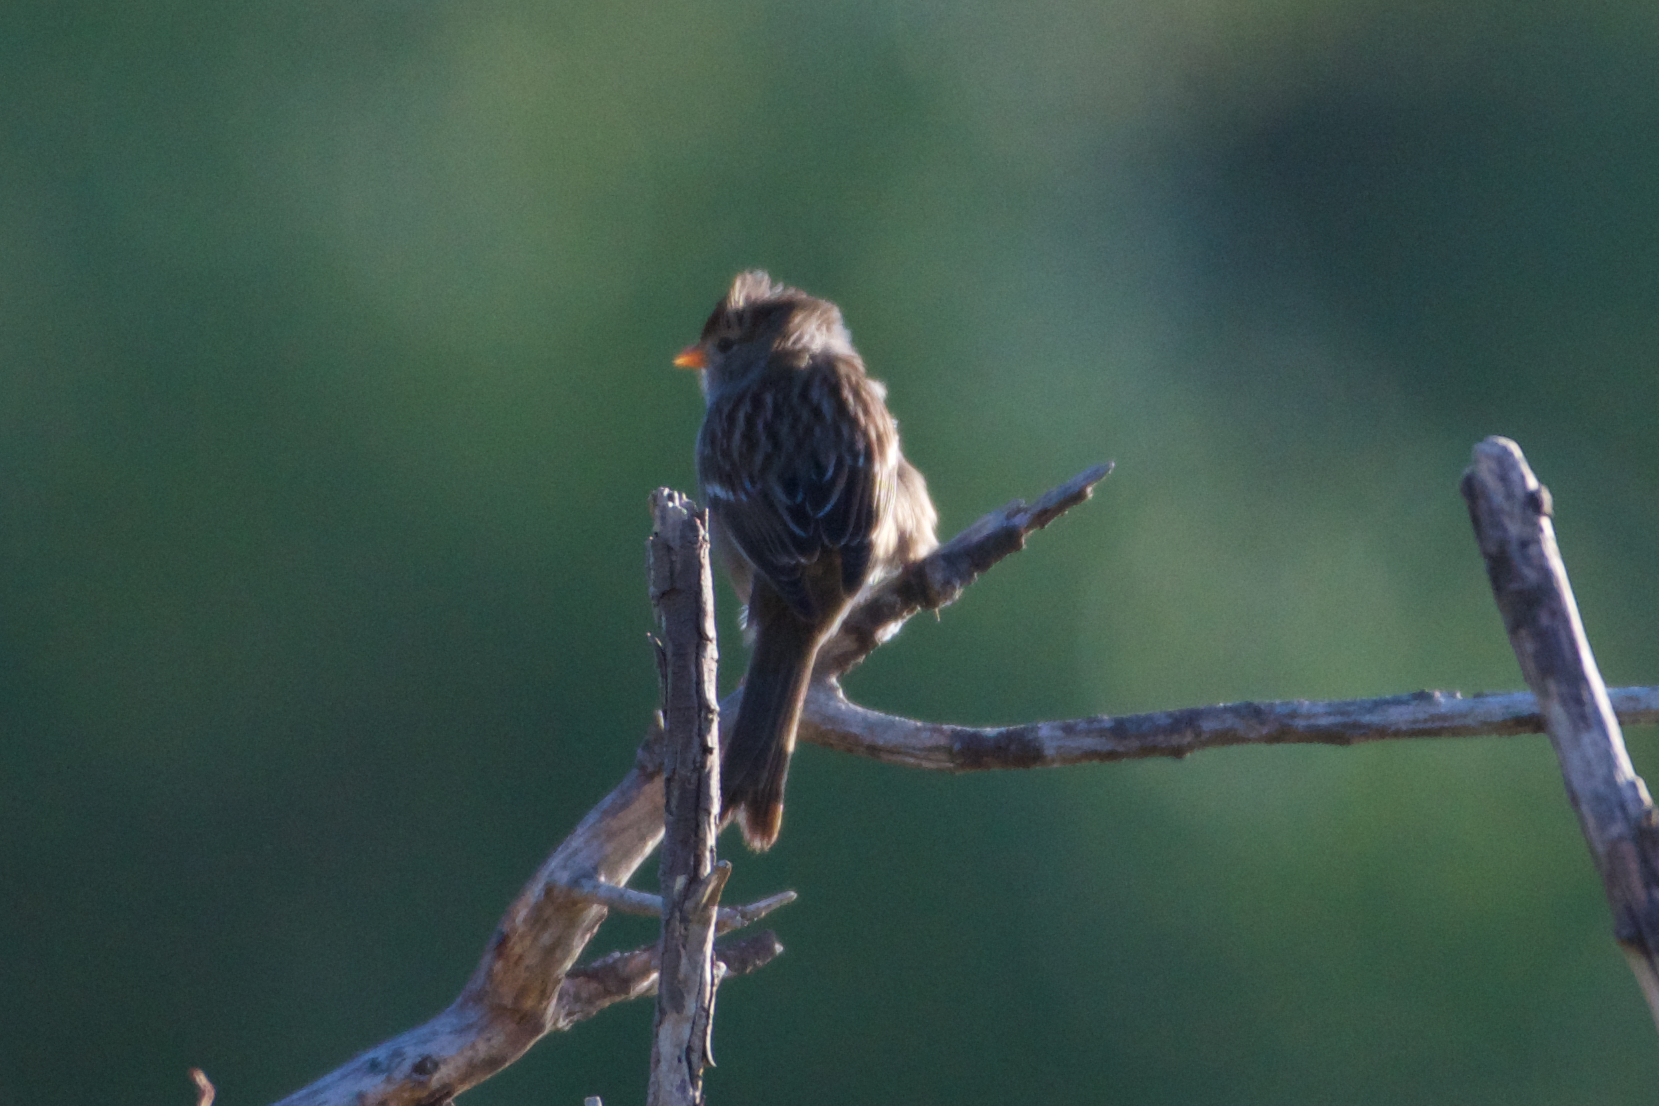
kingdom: Animalia
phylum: Chordata
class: Aves
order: Passeriformes
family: Passerellidae
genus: Zonotrichia
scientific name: Zonotrichia leucophrys
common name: White-crowned sparrow
